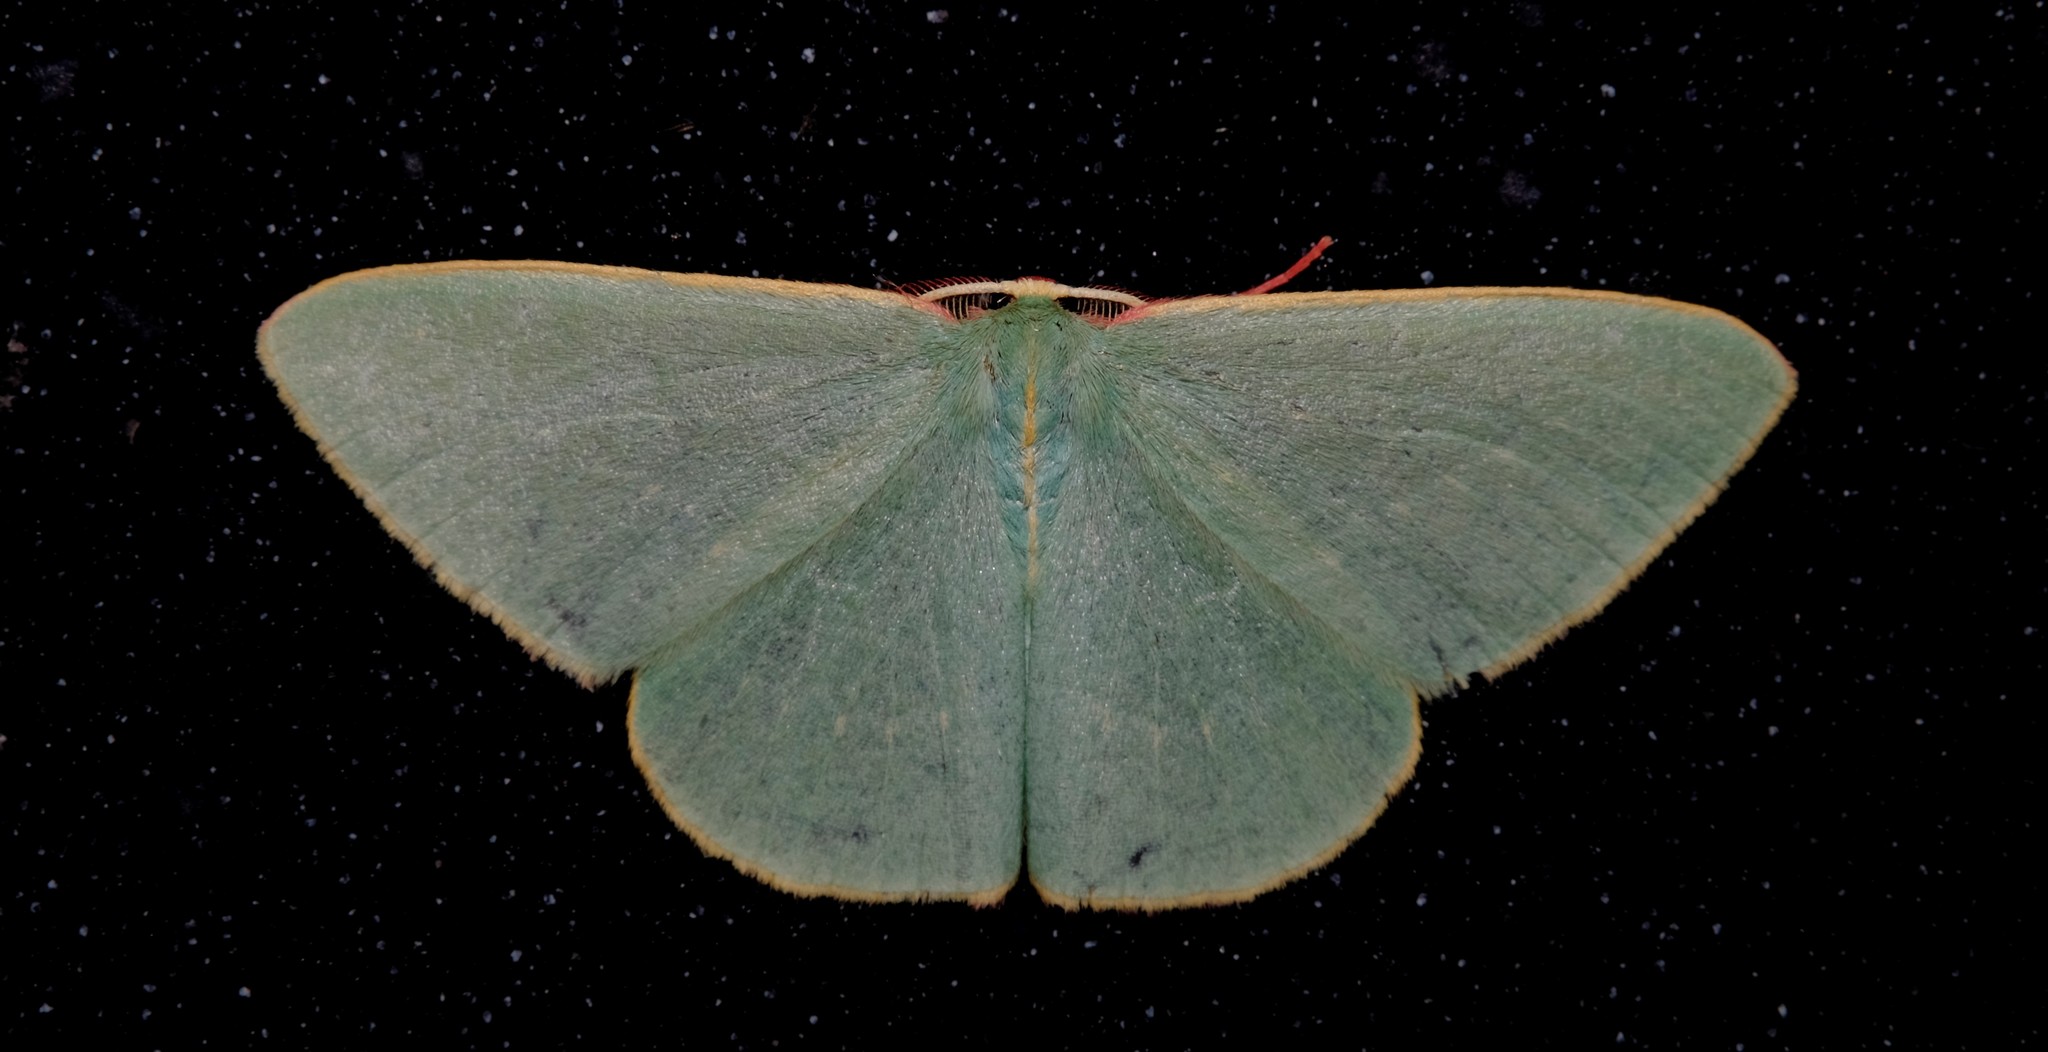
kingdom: Animalia
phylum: Arthropoda
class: Insecta
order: Lepidoptera
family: Geometridae
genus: Chlorocoma
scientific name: Chlorocoma dichloraria
